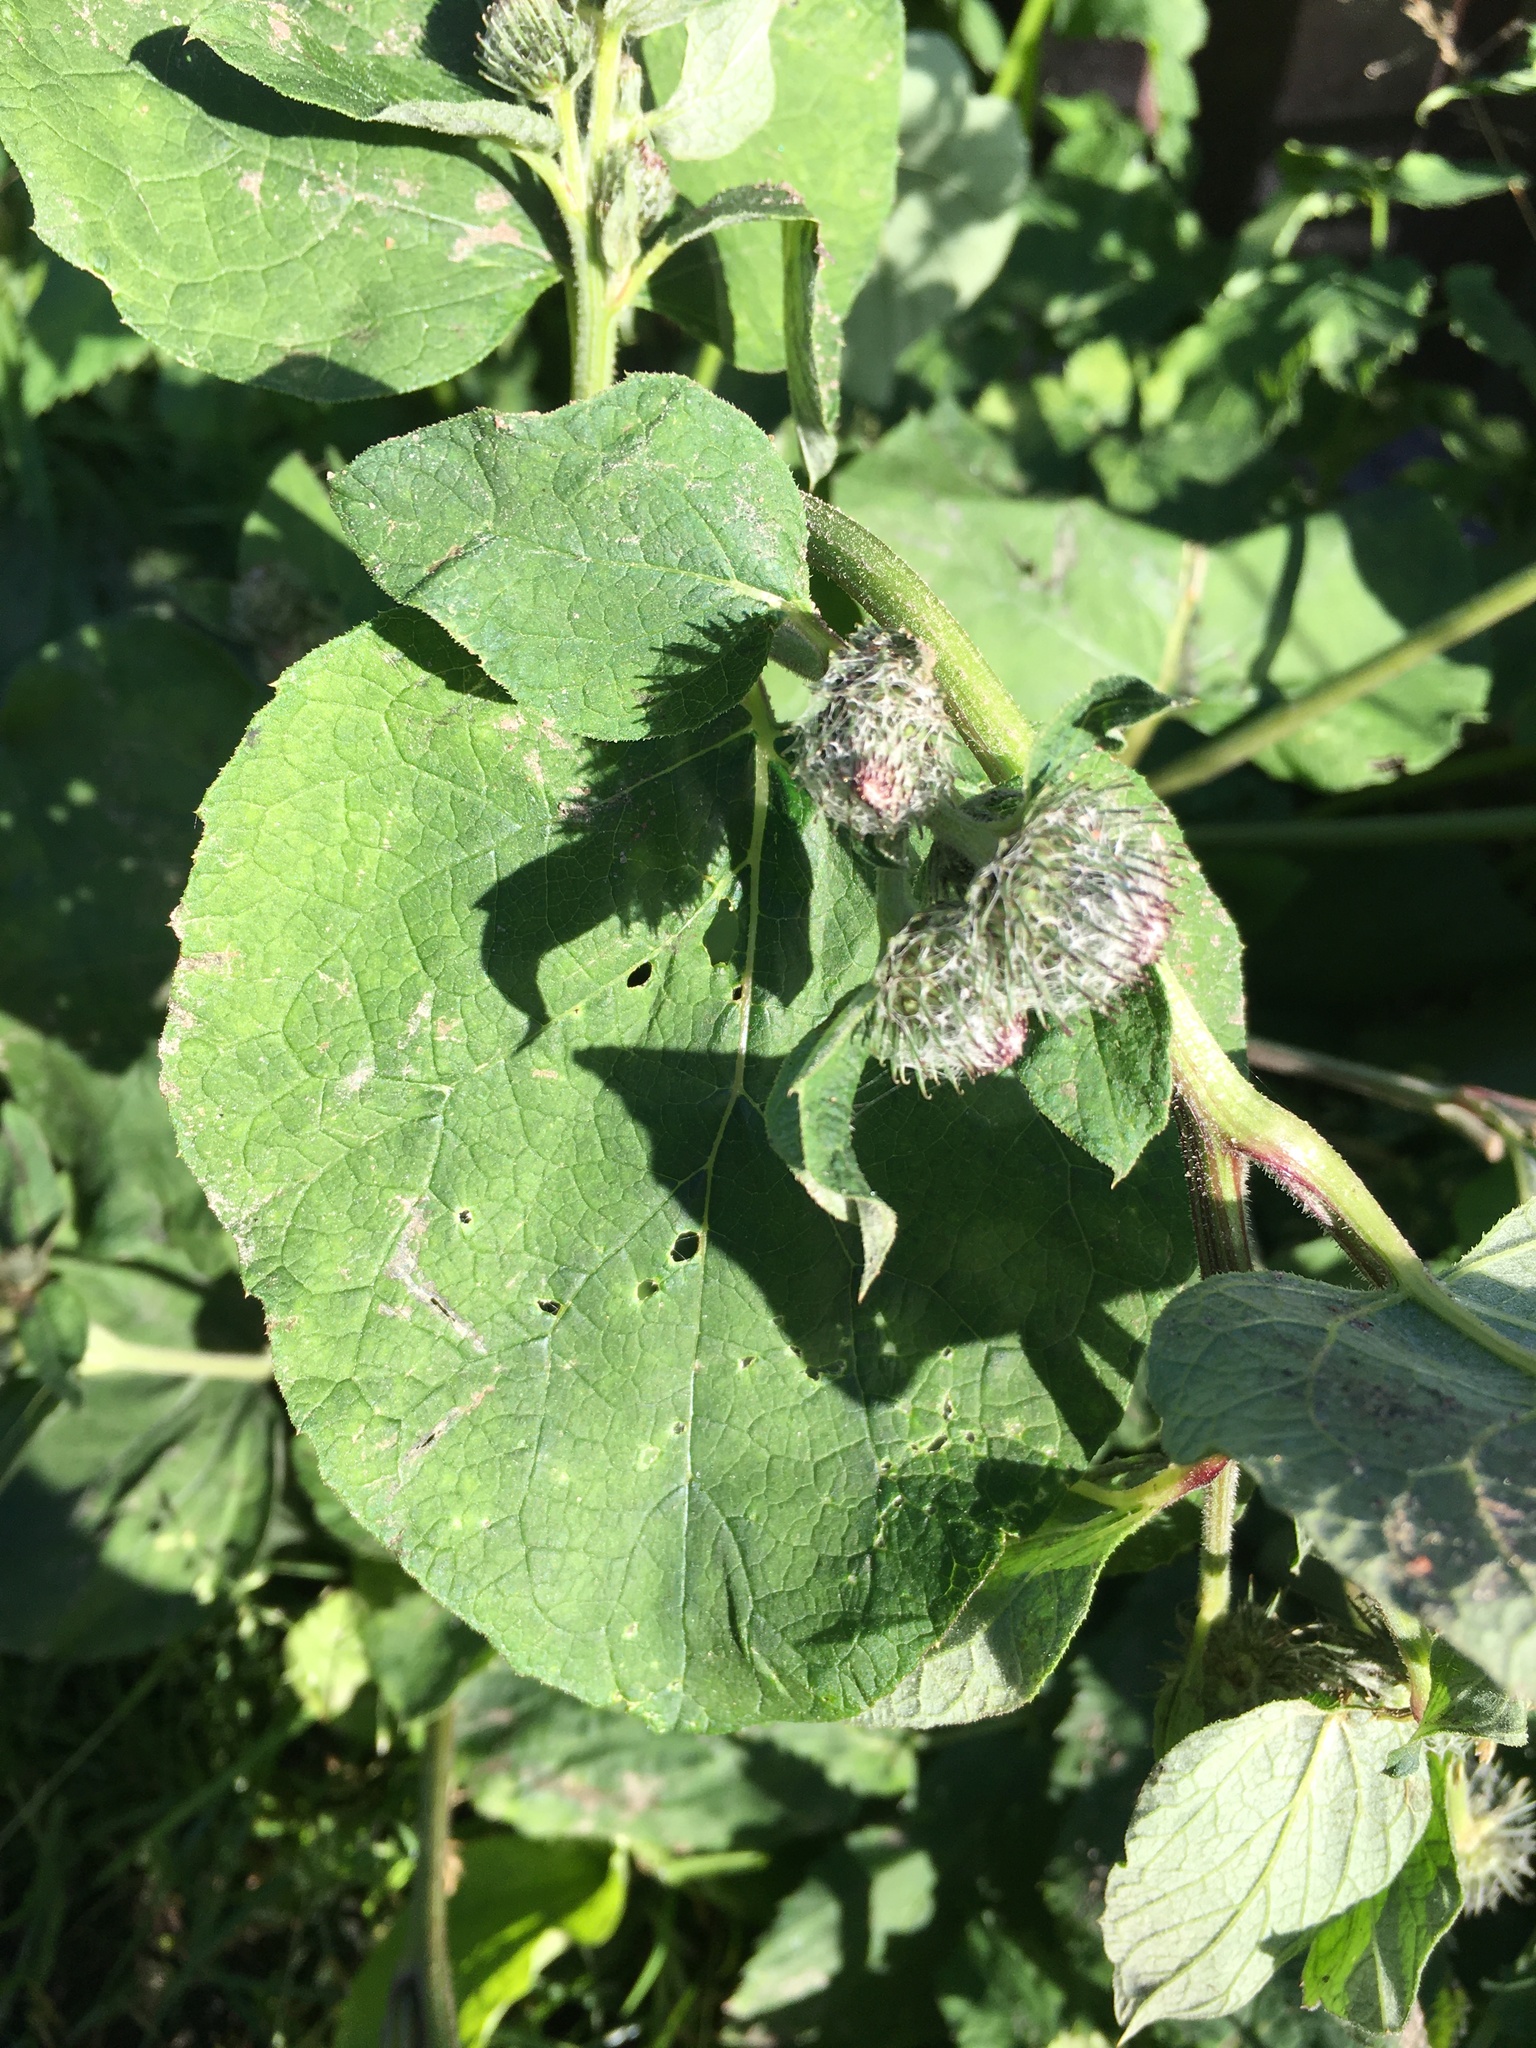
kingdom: Plantae
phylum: Tracheophyta
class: Magnoliopsida
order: Asterales
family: Asteraceae
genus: Arctium
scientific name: Arctium tomentosum
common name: Woolly burdock
